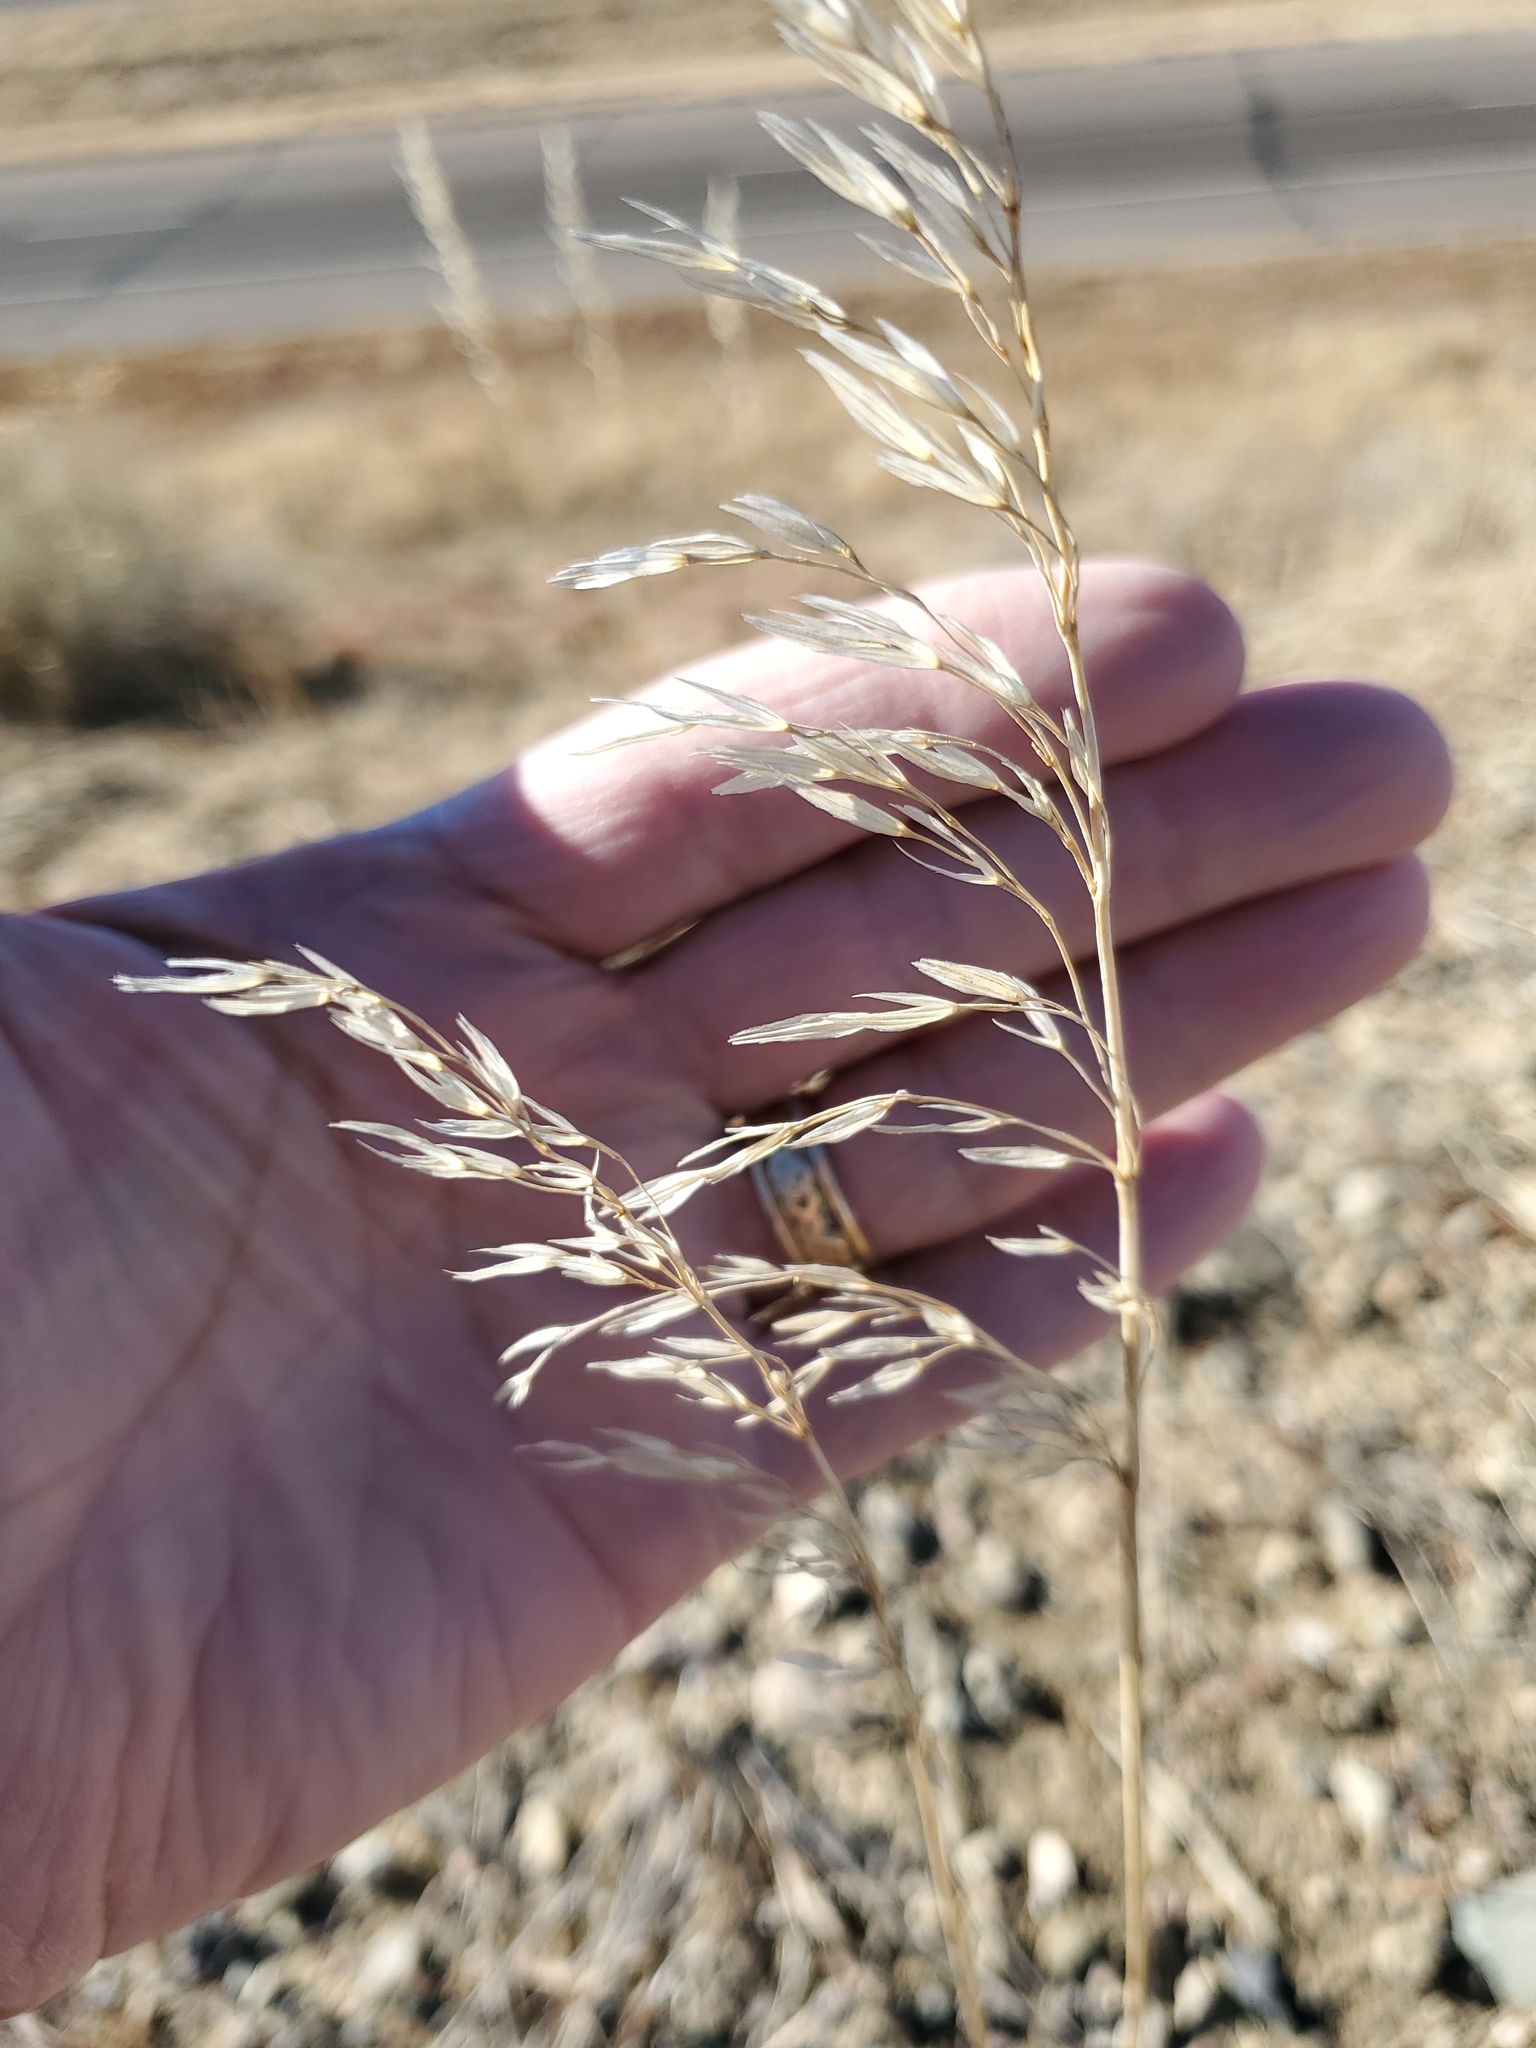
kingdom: Plantae
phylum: Tracheophyta
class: Liliopsida
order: Poales
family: Poaceae
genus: Bromus
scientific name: Bromus inermis
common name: Smooth brome
